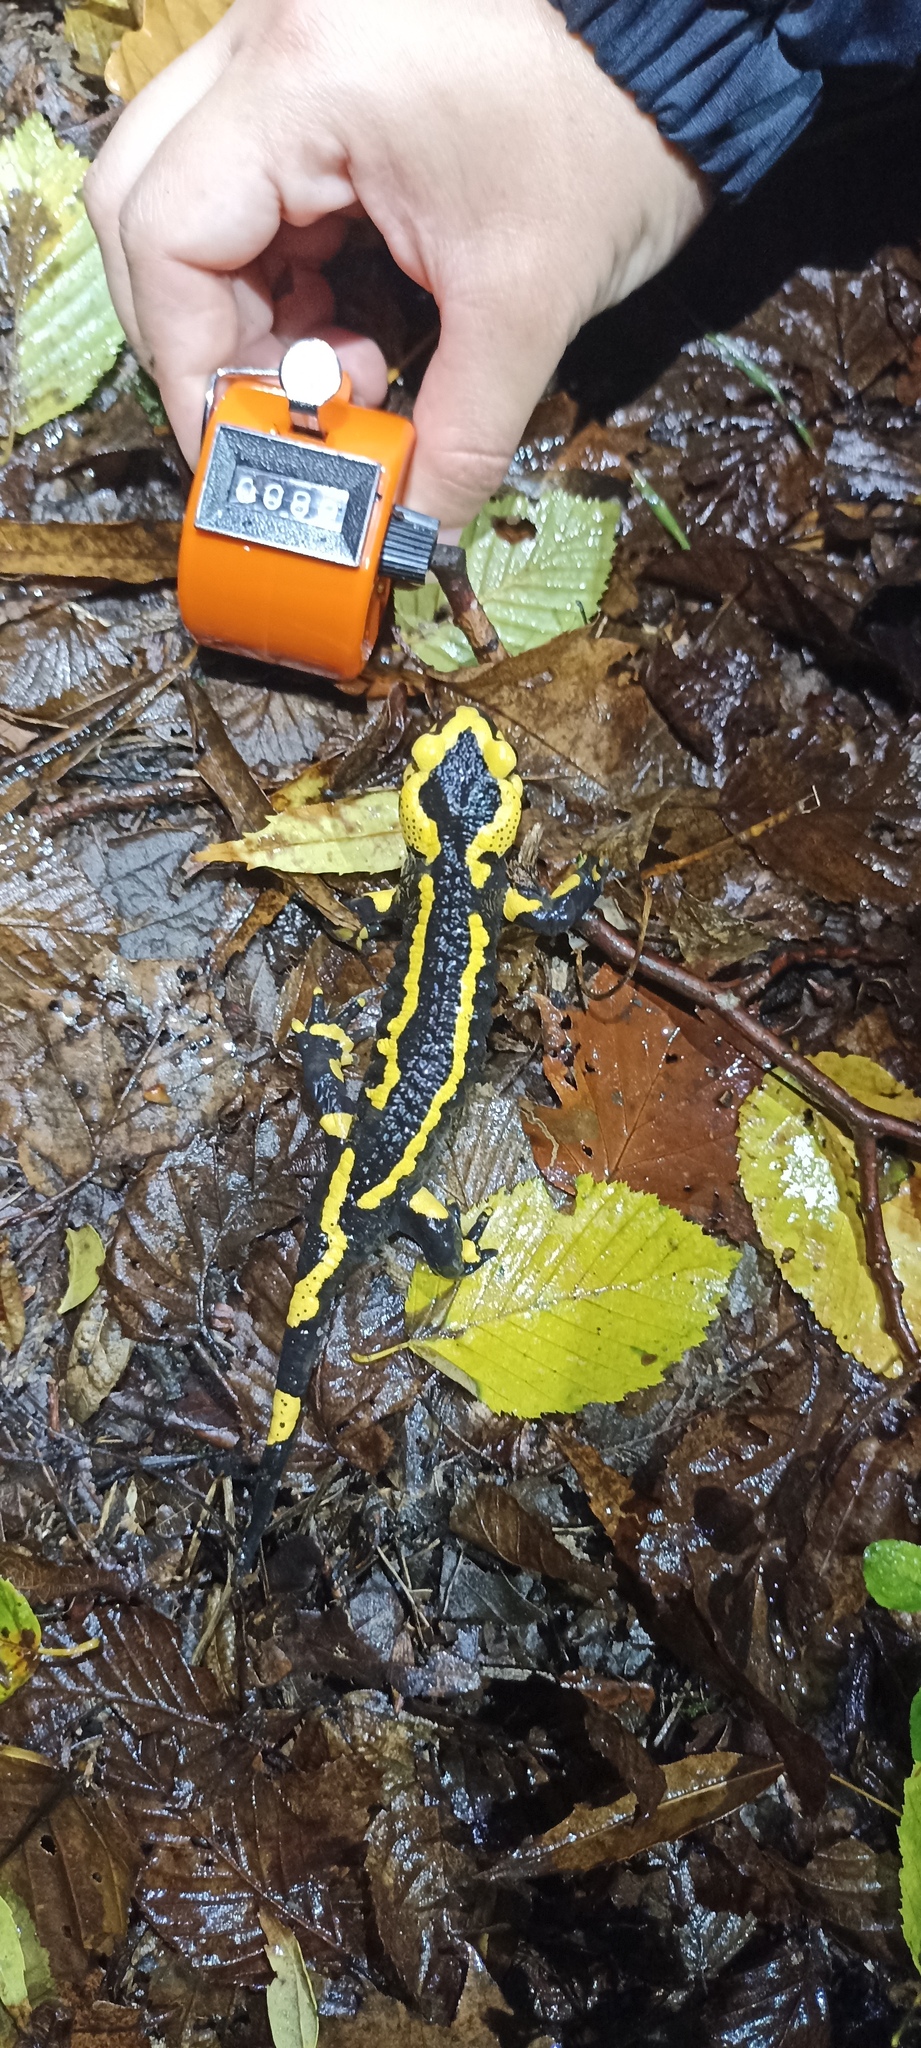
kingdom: Animalia
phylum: Chordata
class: Amphibia
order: Caudata
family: Salamandridae
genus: Salamandra
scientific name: Salamandra salamandra
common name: Fire salamander
